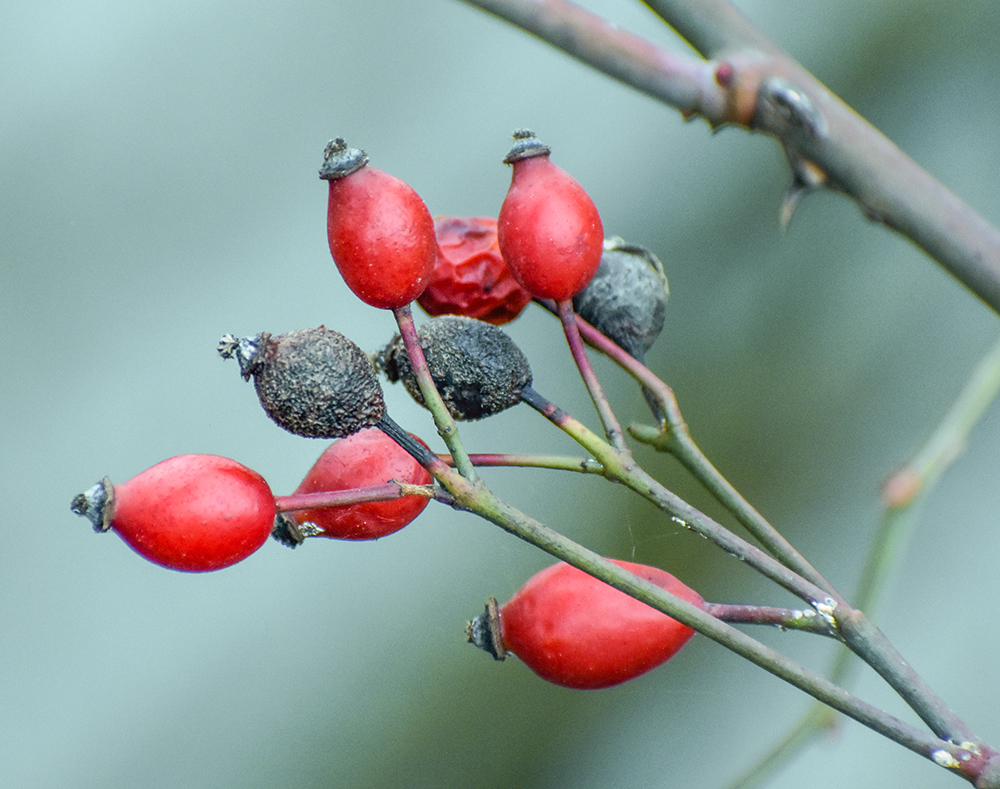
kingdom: Plantae
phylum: Tracheophyta
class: Magnoliopsida
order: Rosales
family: Rosaceae
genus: Rosa
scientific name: Rosa canina
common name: Dog rose
